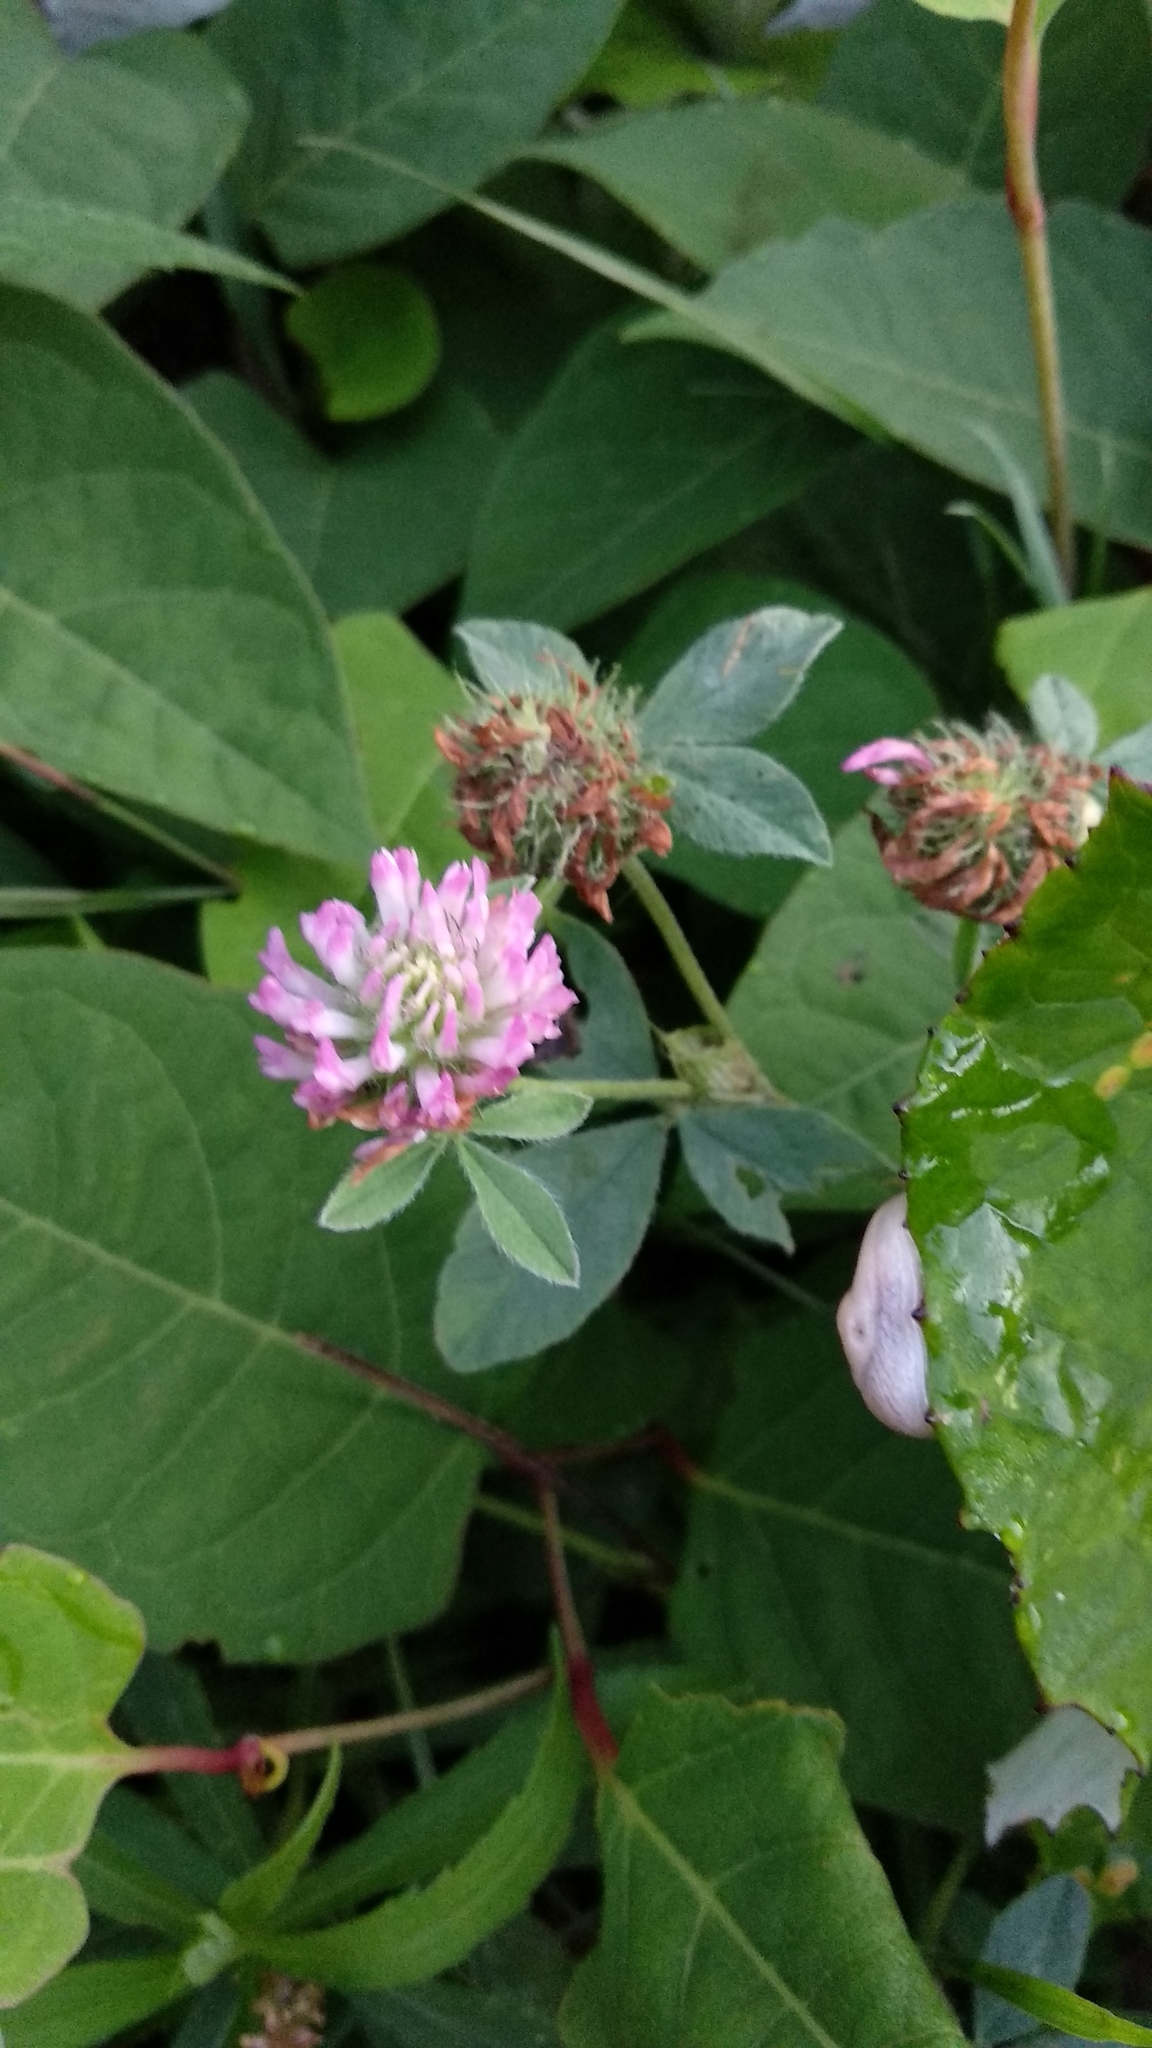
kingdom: Plantae
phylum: Tracheophyta
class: Magnoliopsida
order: Fabales
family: Fabaceae
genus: Trifolium
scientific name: Trifolium pratense
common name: Red clover
